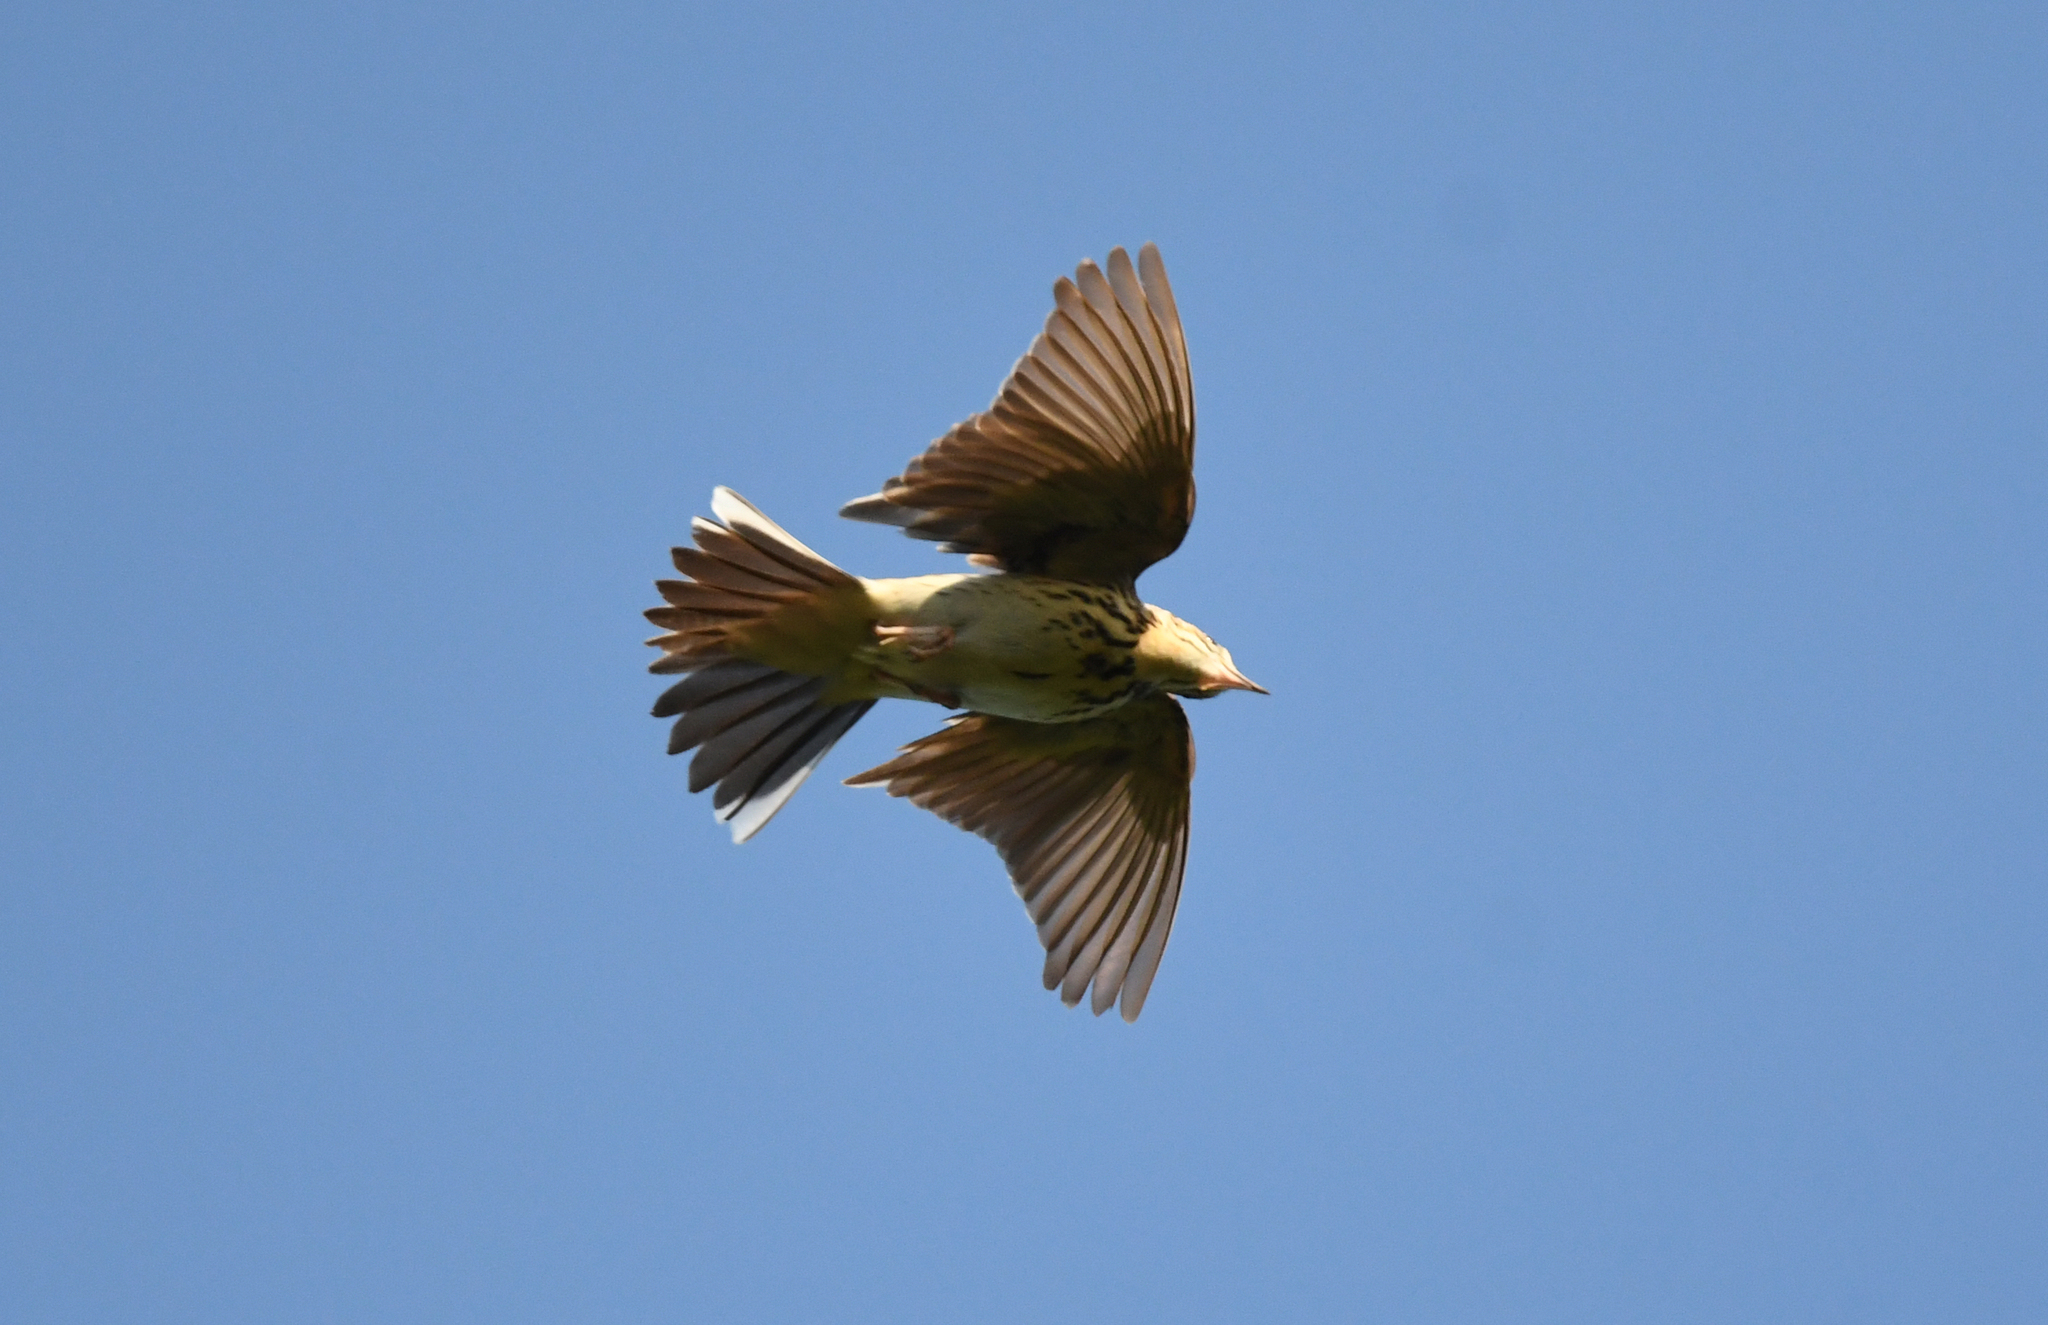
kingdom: Animalia
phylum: Chordata
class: Aves
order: Passeriformes
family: Motacillidae
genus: Anthus
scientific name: Anthus trivialis
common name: Tree pipit
